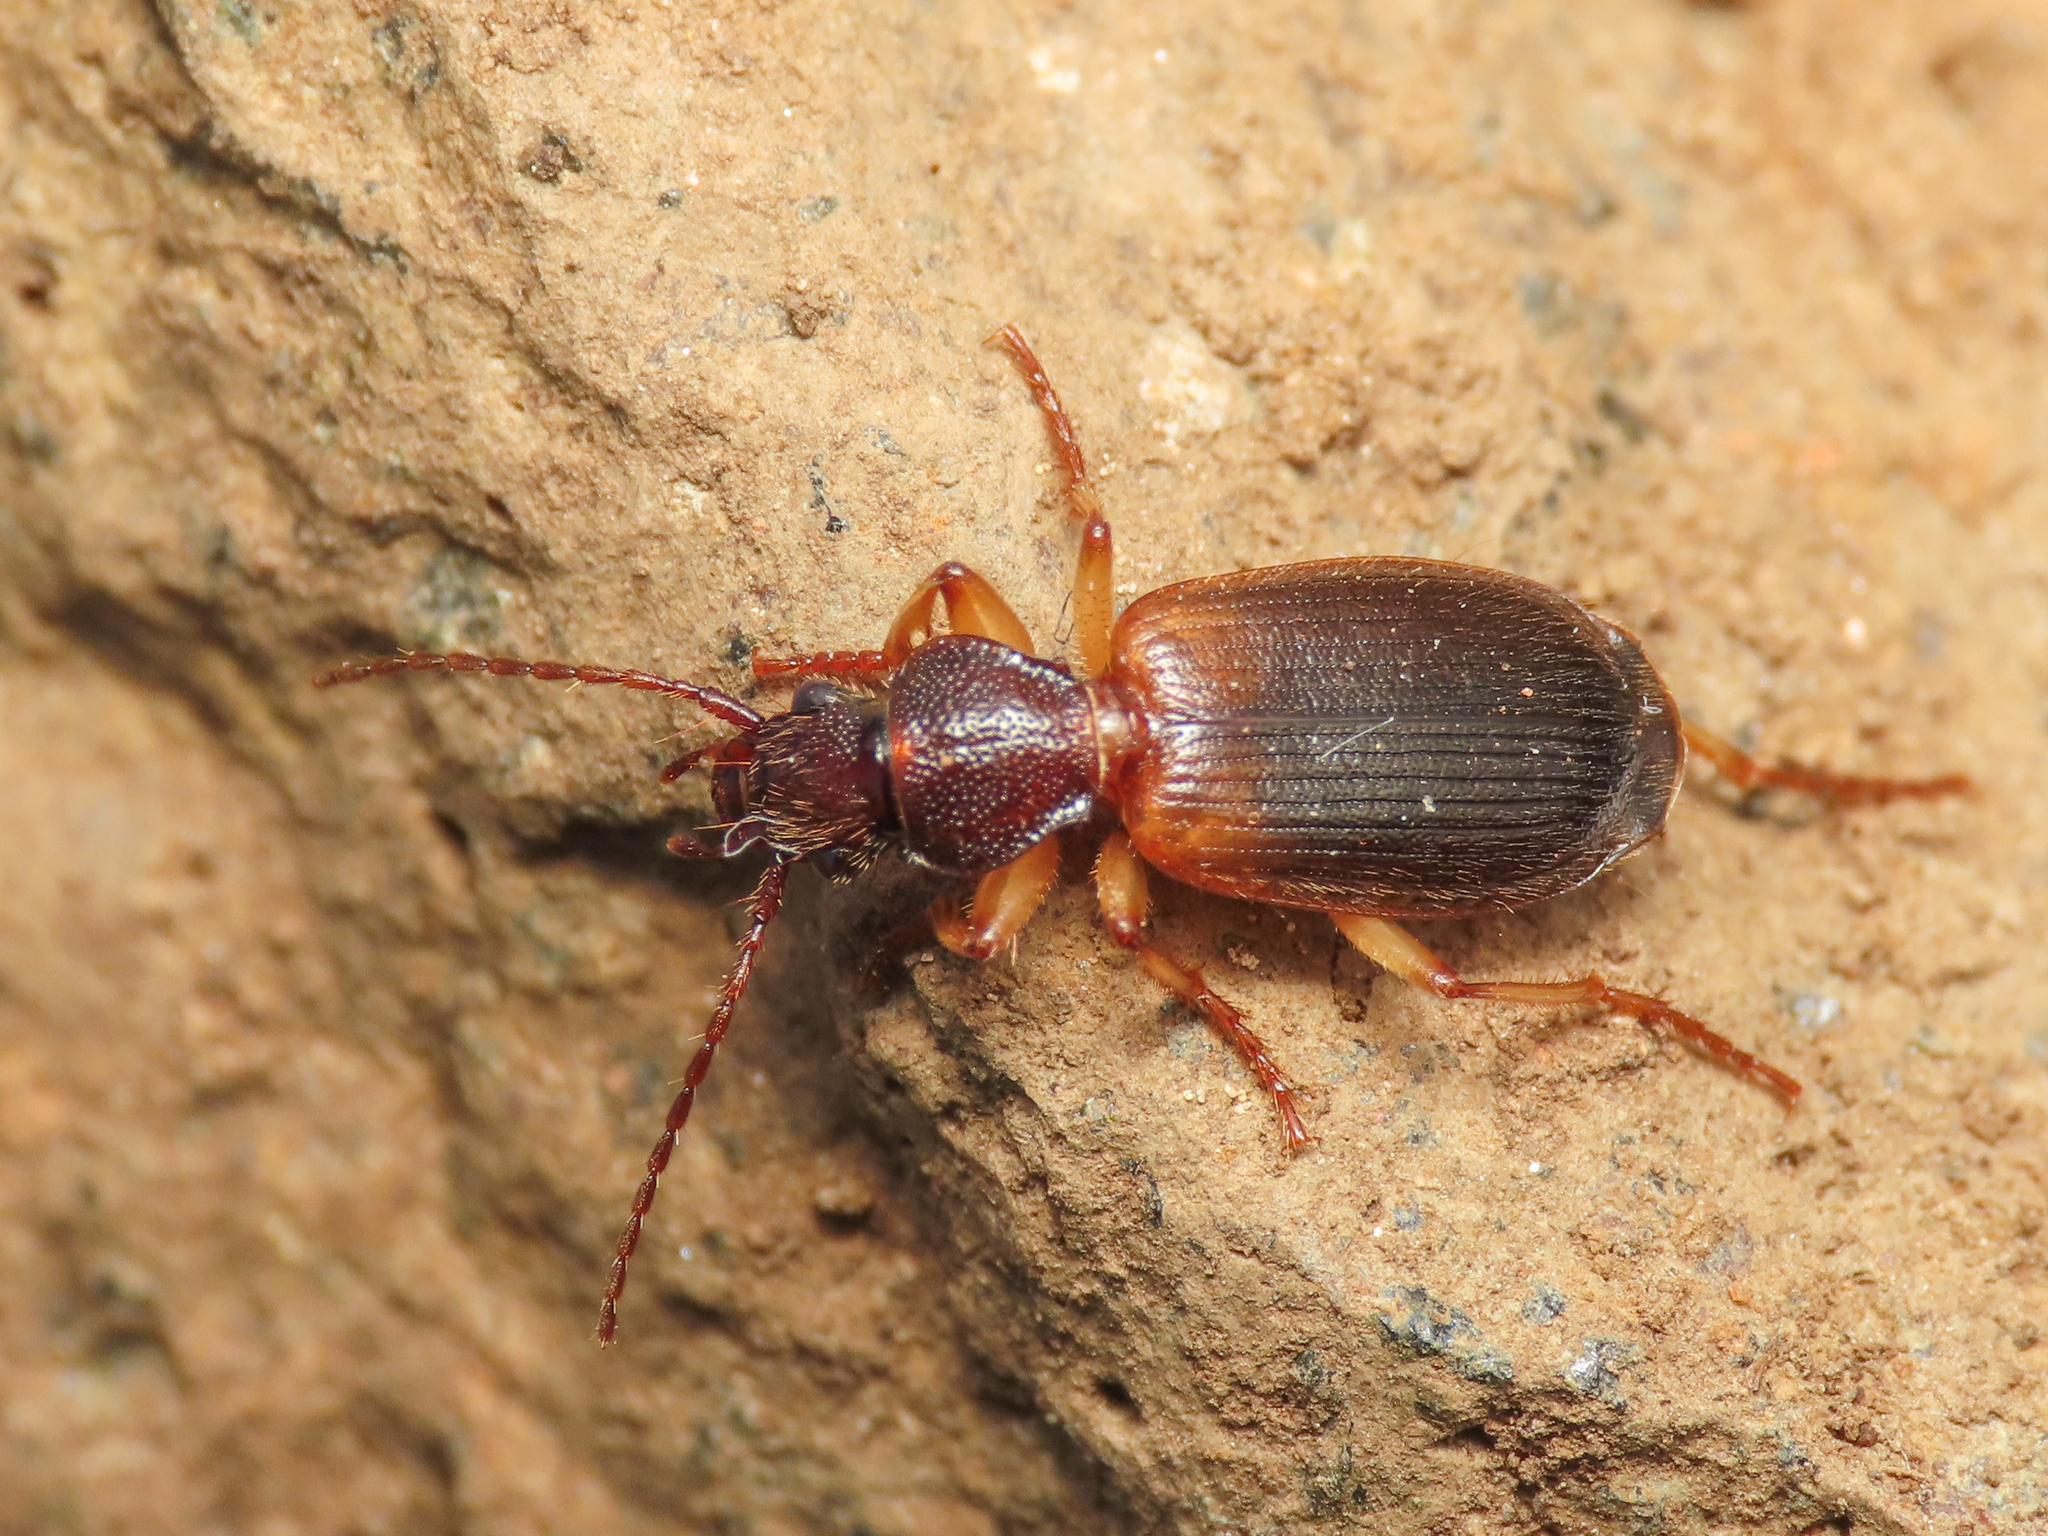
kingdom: Animalia
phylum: Arthropoda
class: Insecta
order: Coleoptera
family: Carabidae
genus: Cymindis
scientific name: Cymindis vaporariorum
